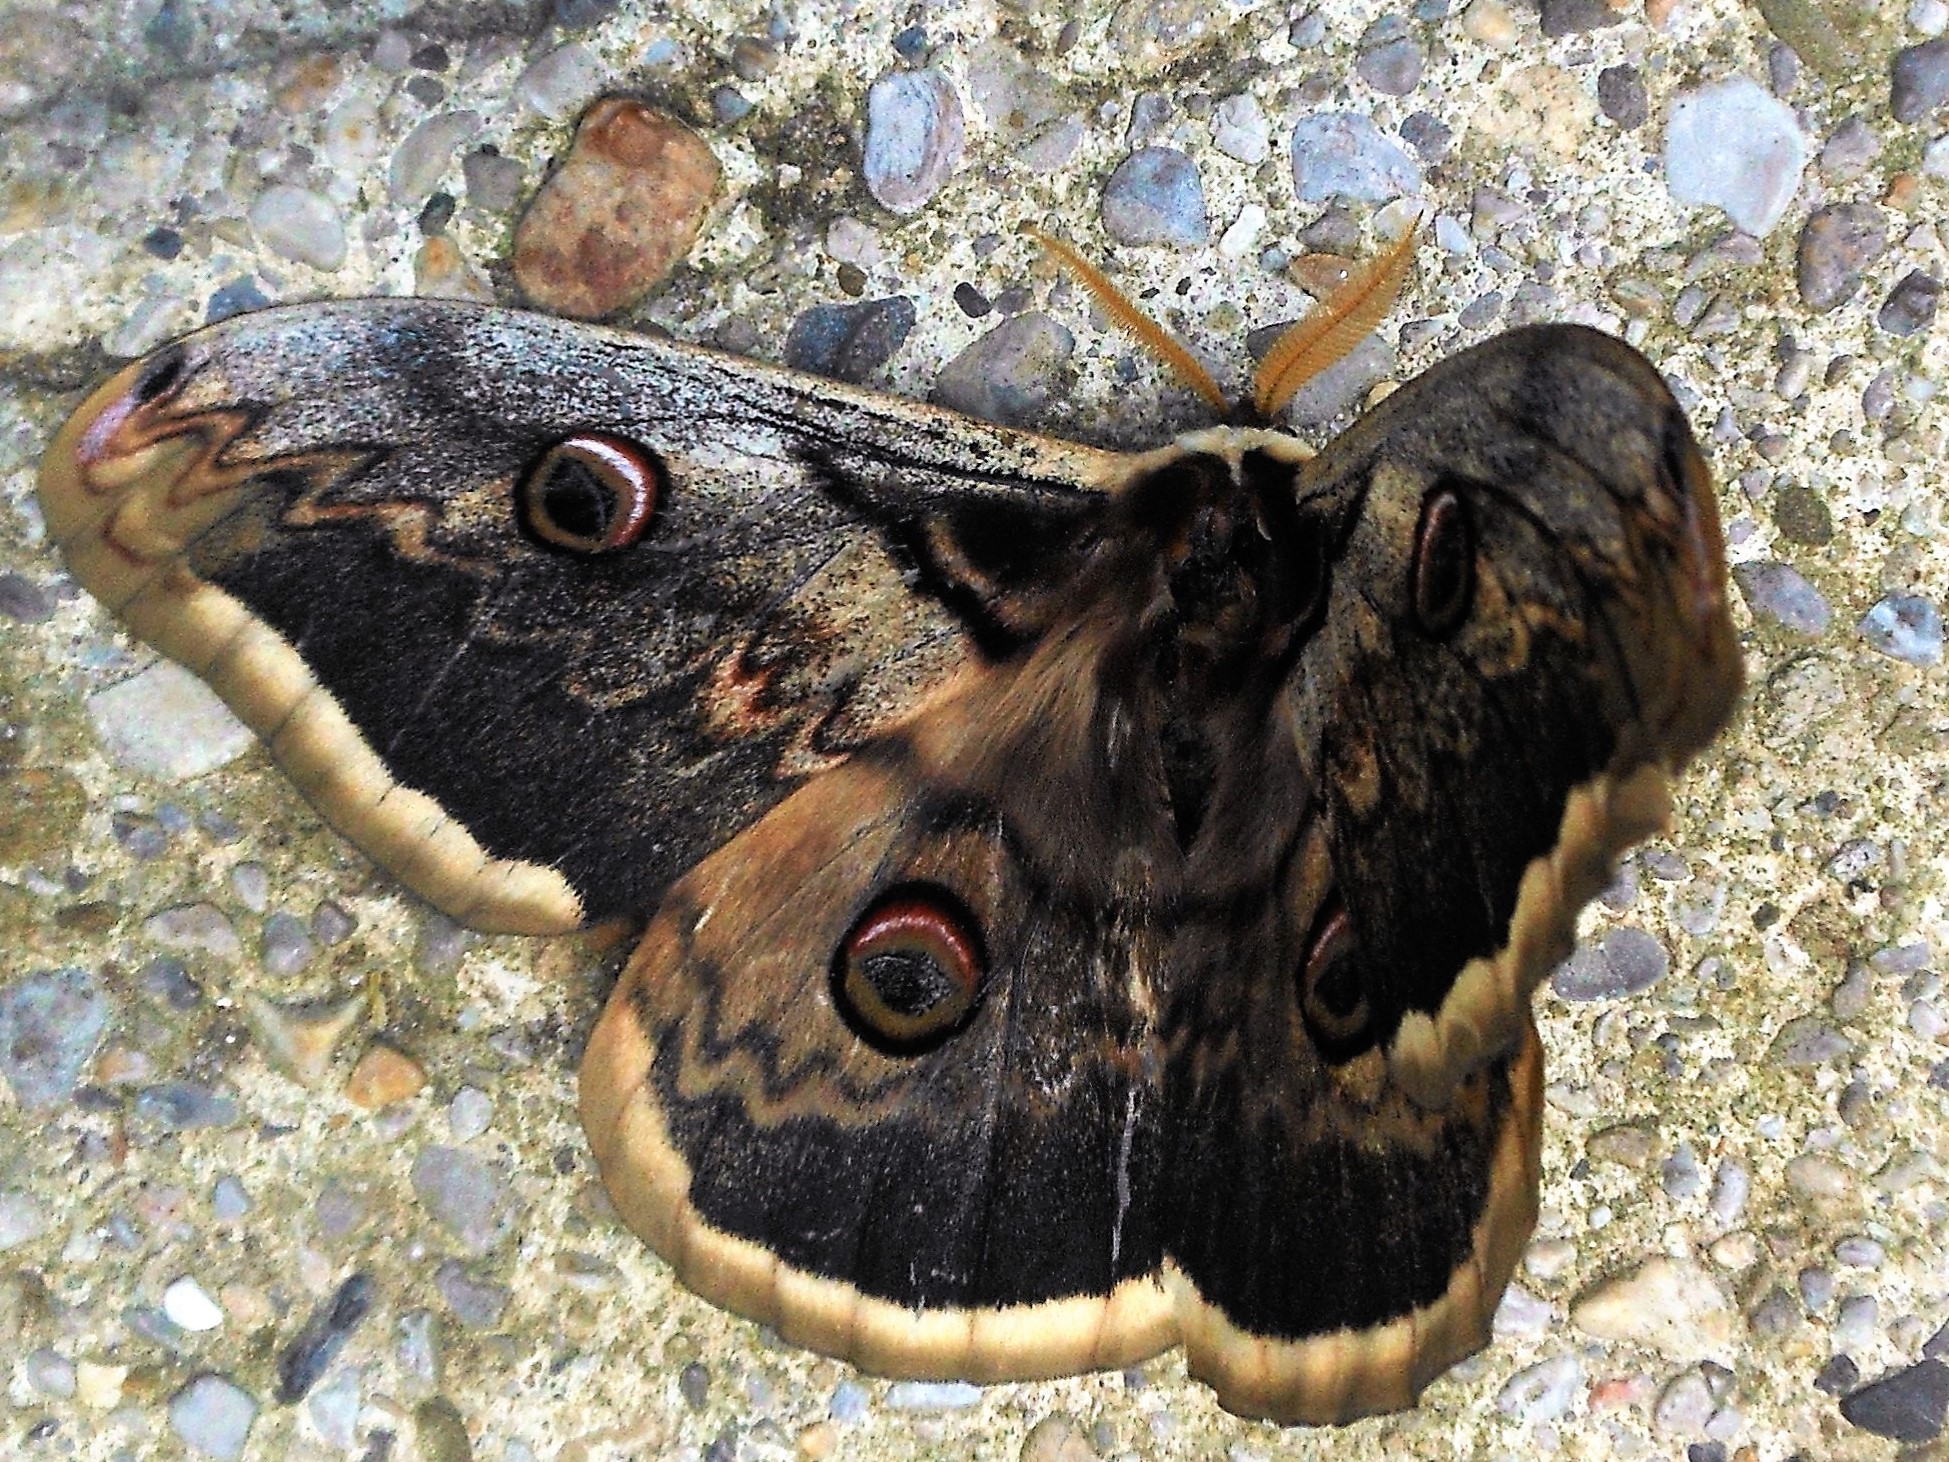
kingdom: Animalia
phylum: Arthropoda
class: Insecta
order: Lepidoptera
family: Saturniidae
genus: Saturnia
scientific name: Saturnia pyri
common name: Great peacock moth
